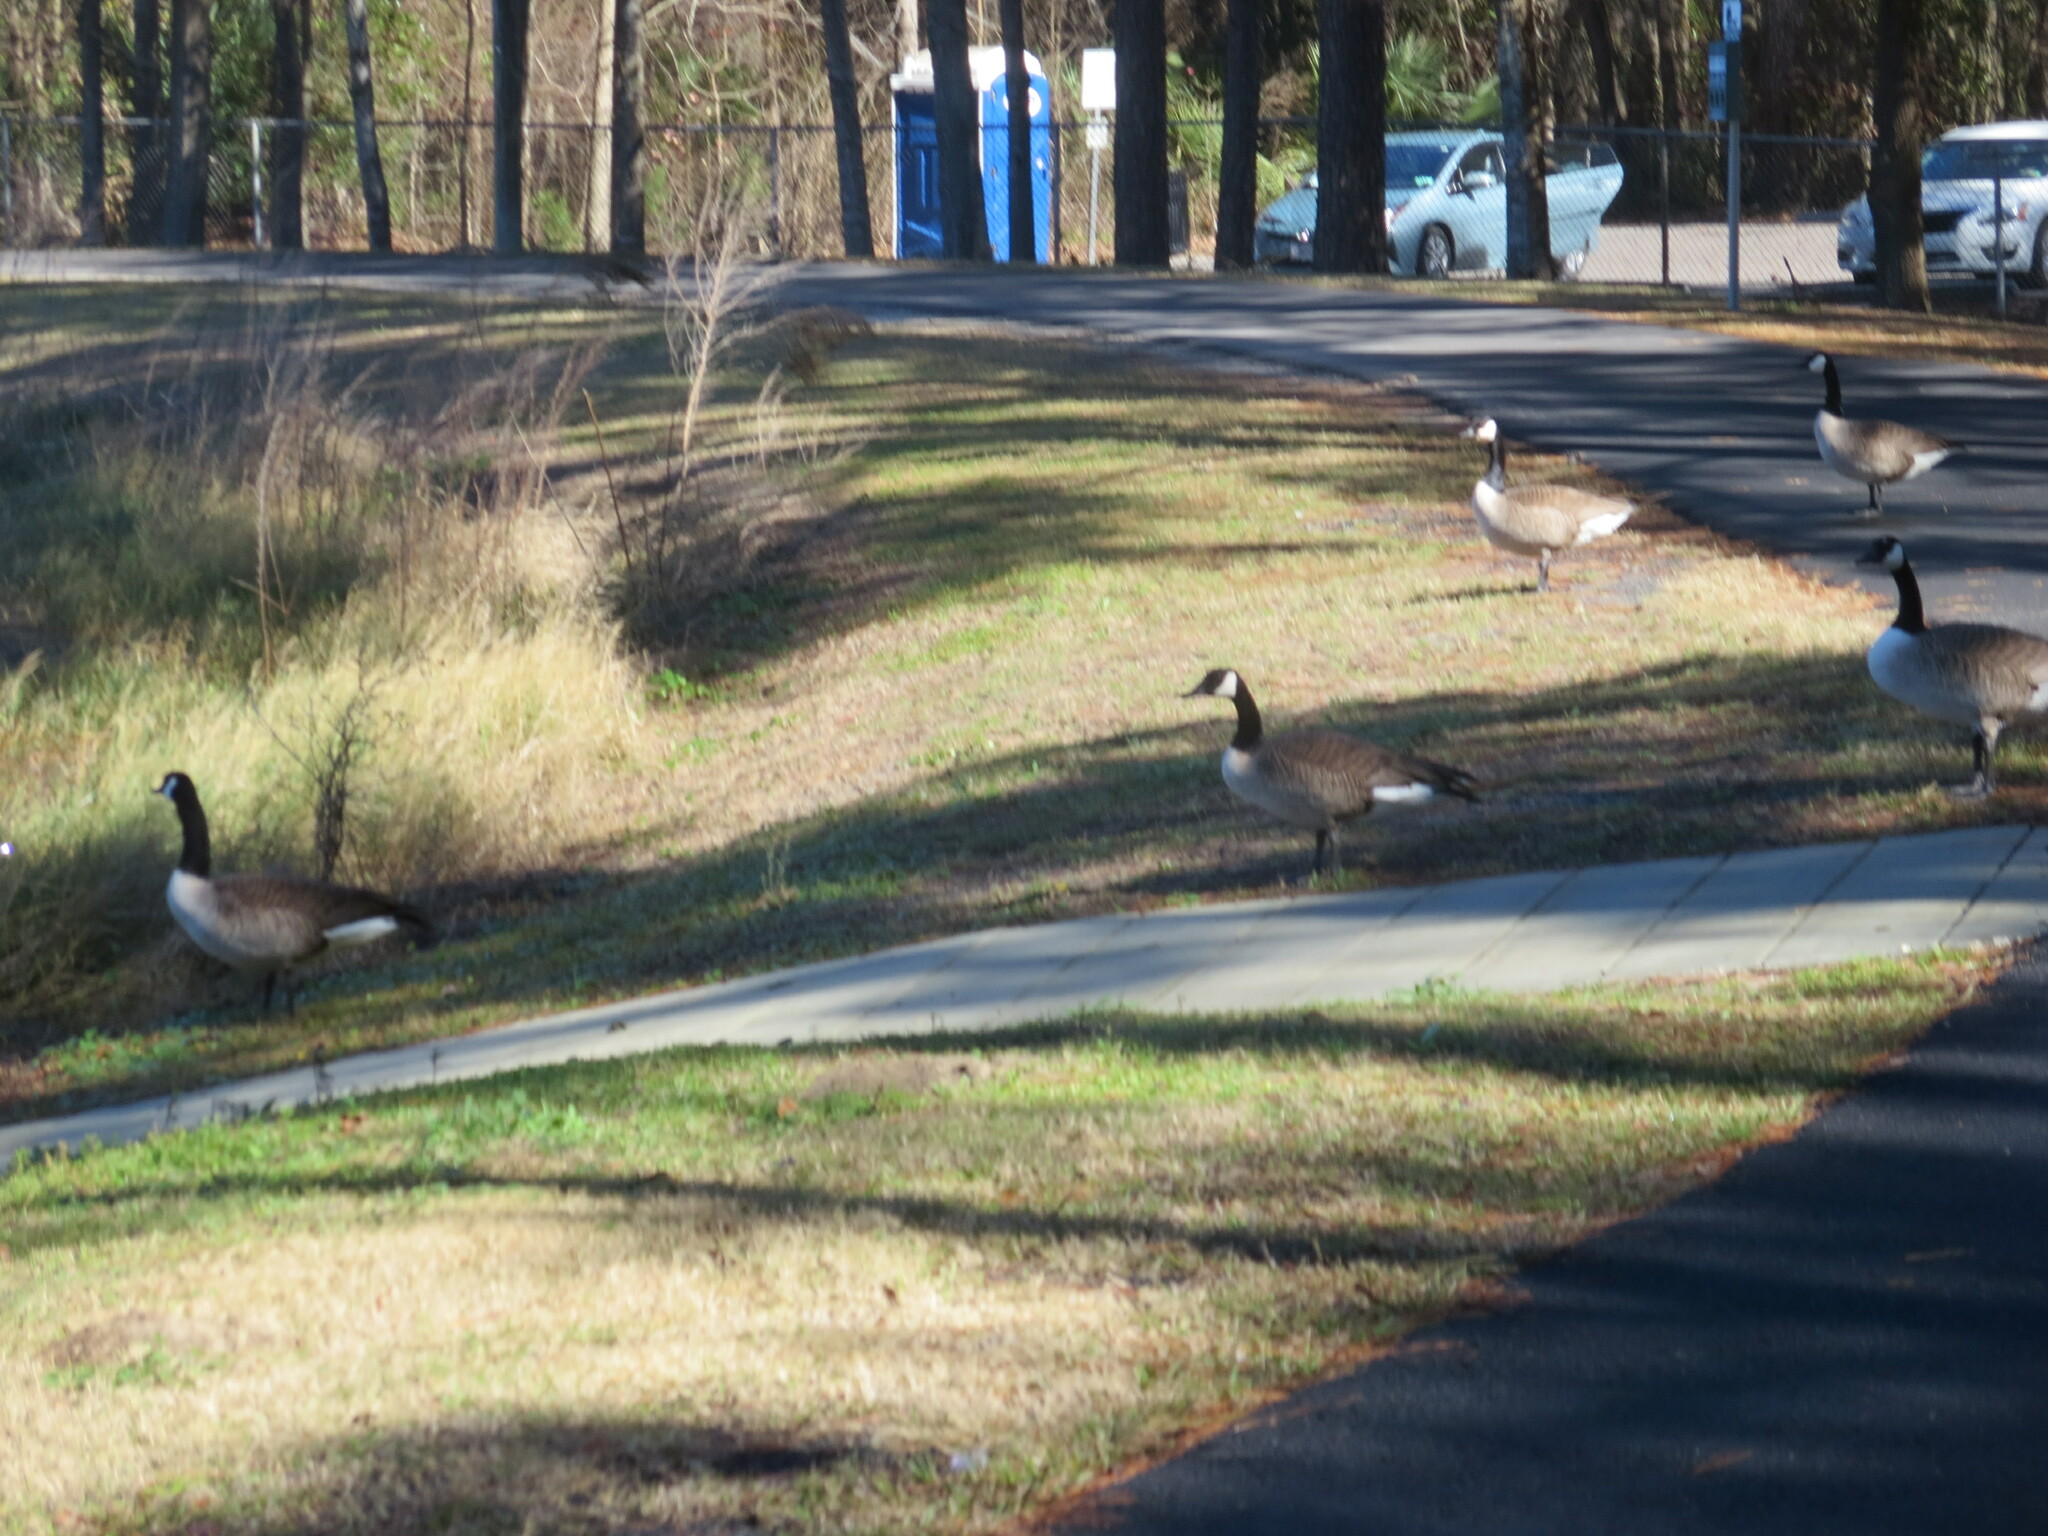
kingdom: Animalia
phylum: Chordata
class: Aves
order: Anseriformes
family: Anatidae
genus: Branta
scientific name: Branta canadensis
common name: Canada goose
